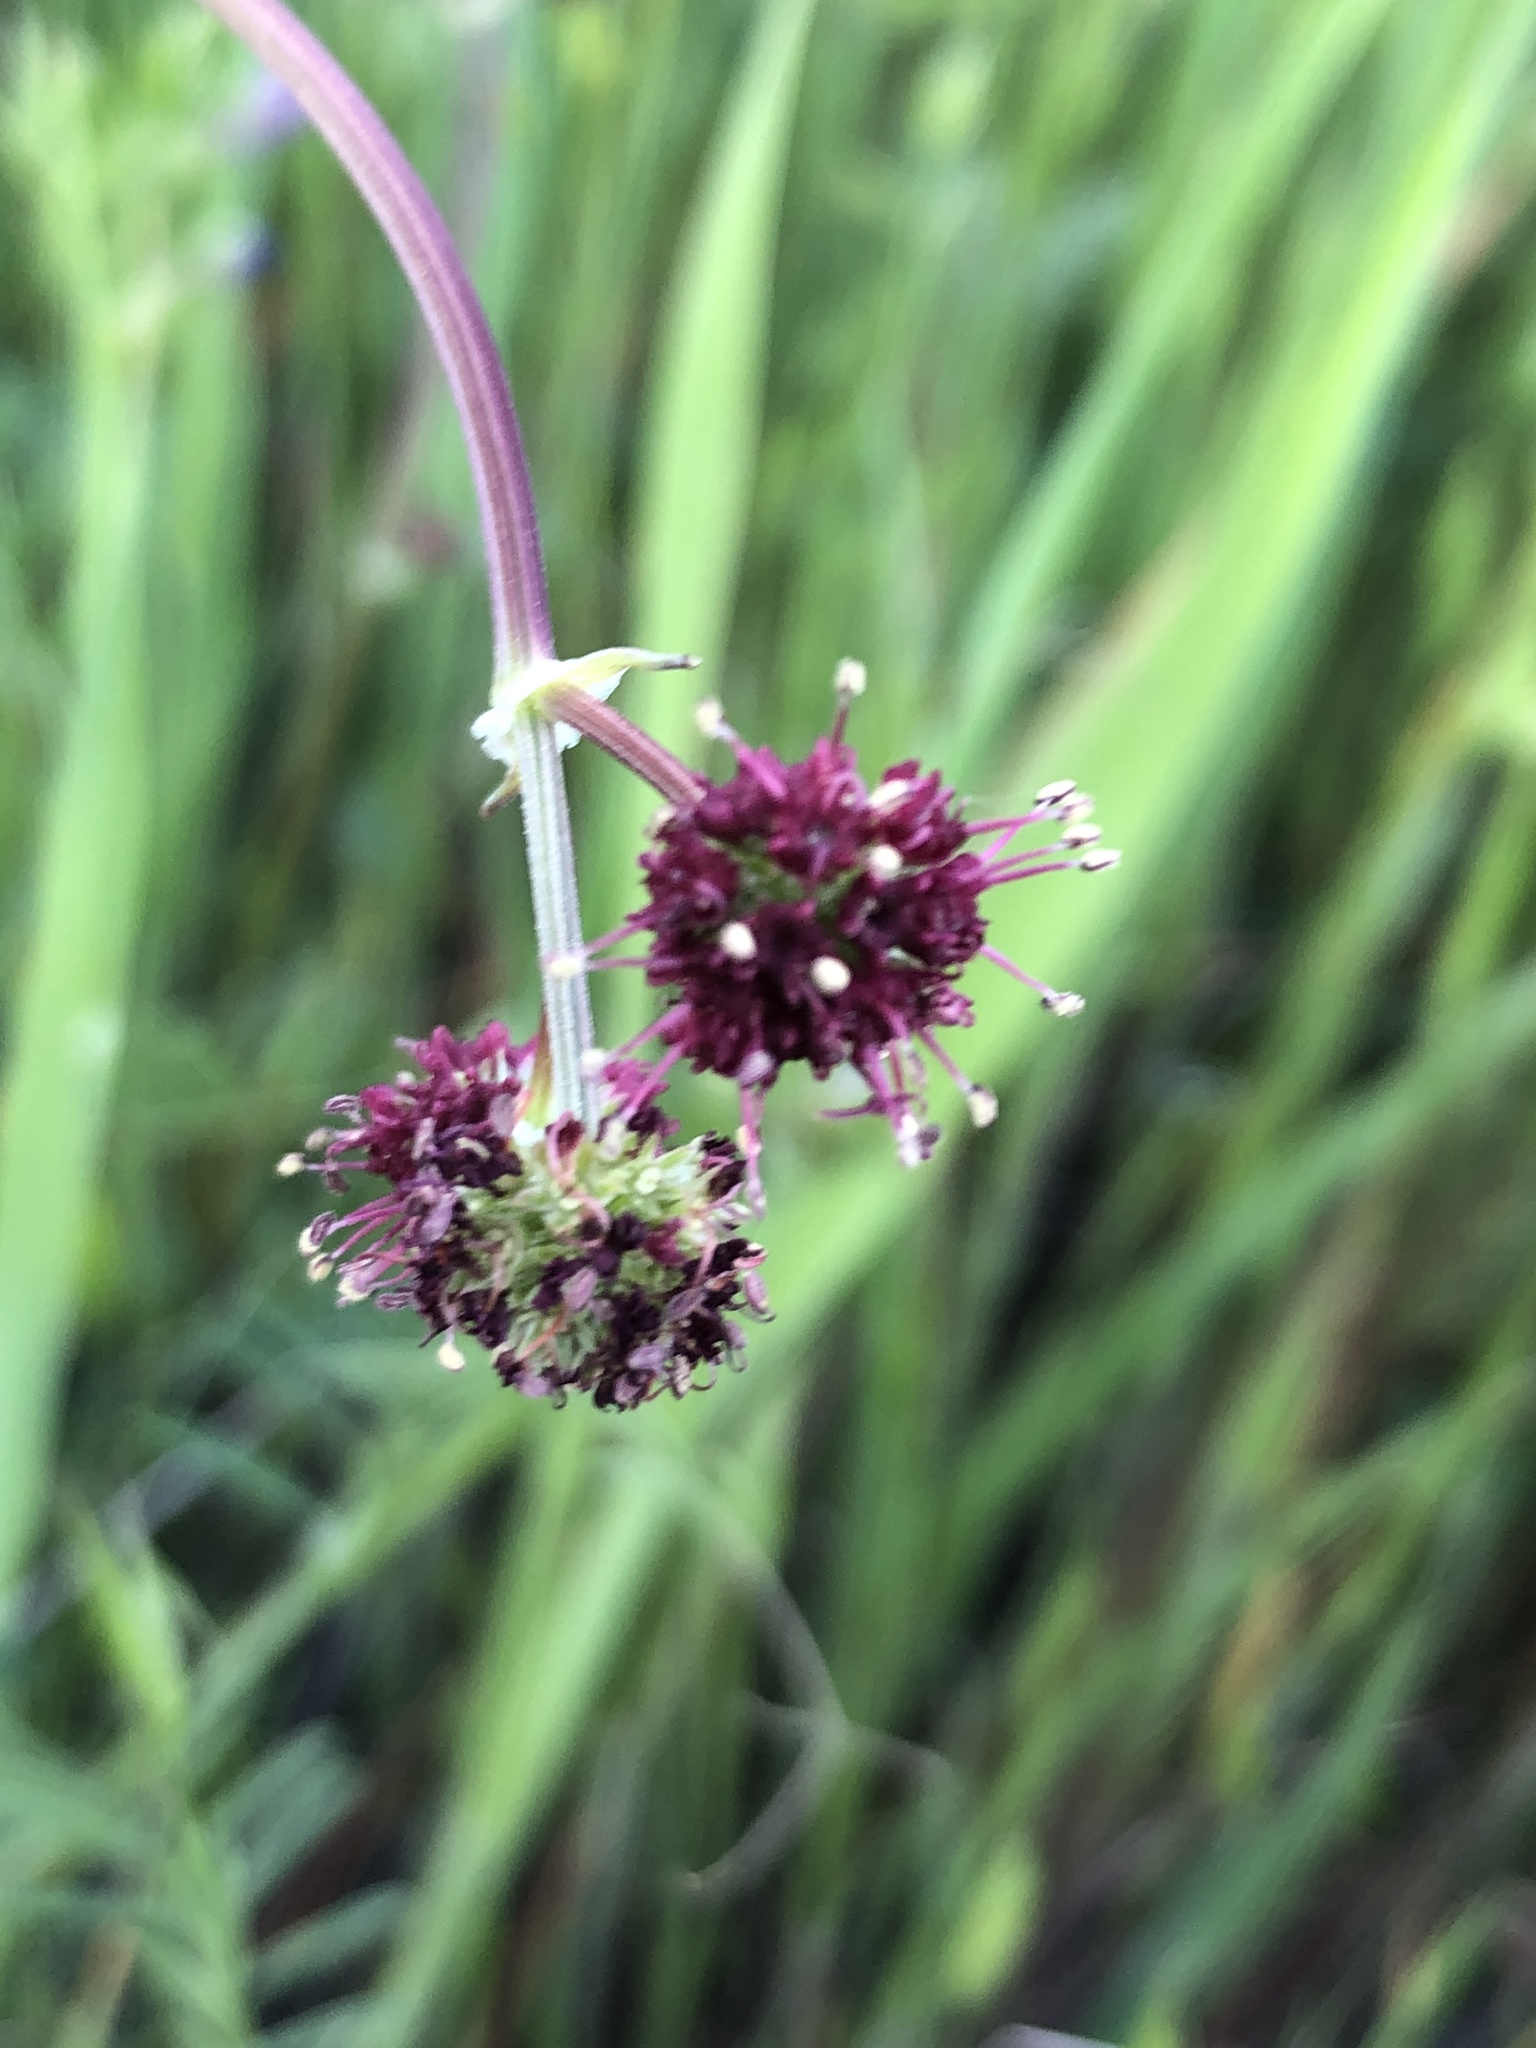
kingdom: Plantae
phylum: Tracheophyta
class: Magnoliopsida
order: Apiales
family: Apiaceae
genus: Sanicula
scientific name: Sanicula bipinnatifida
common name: Shoe-buttons
